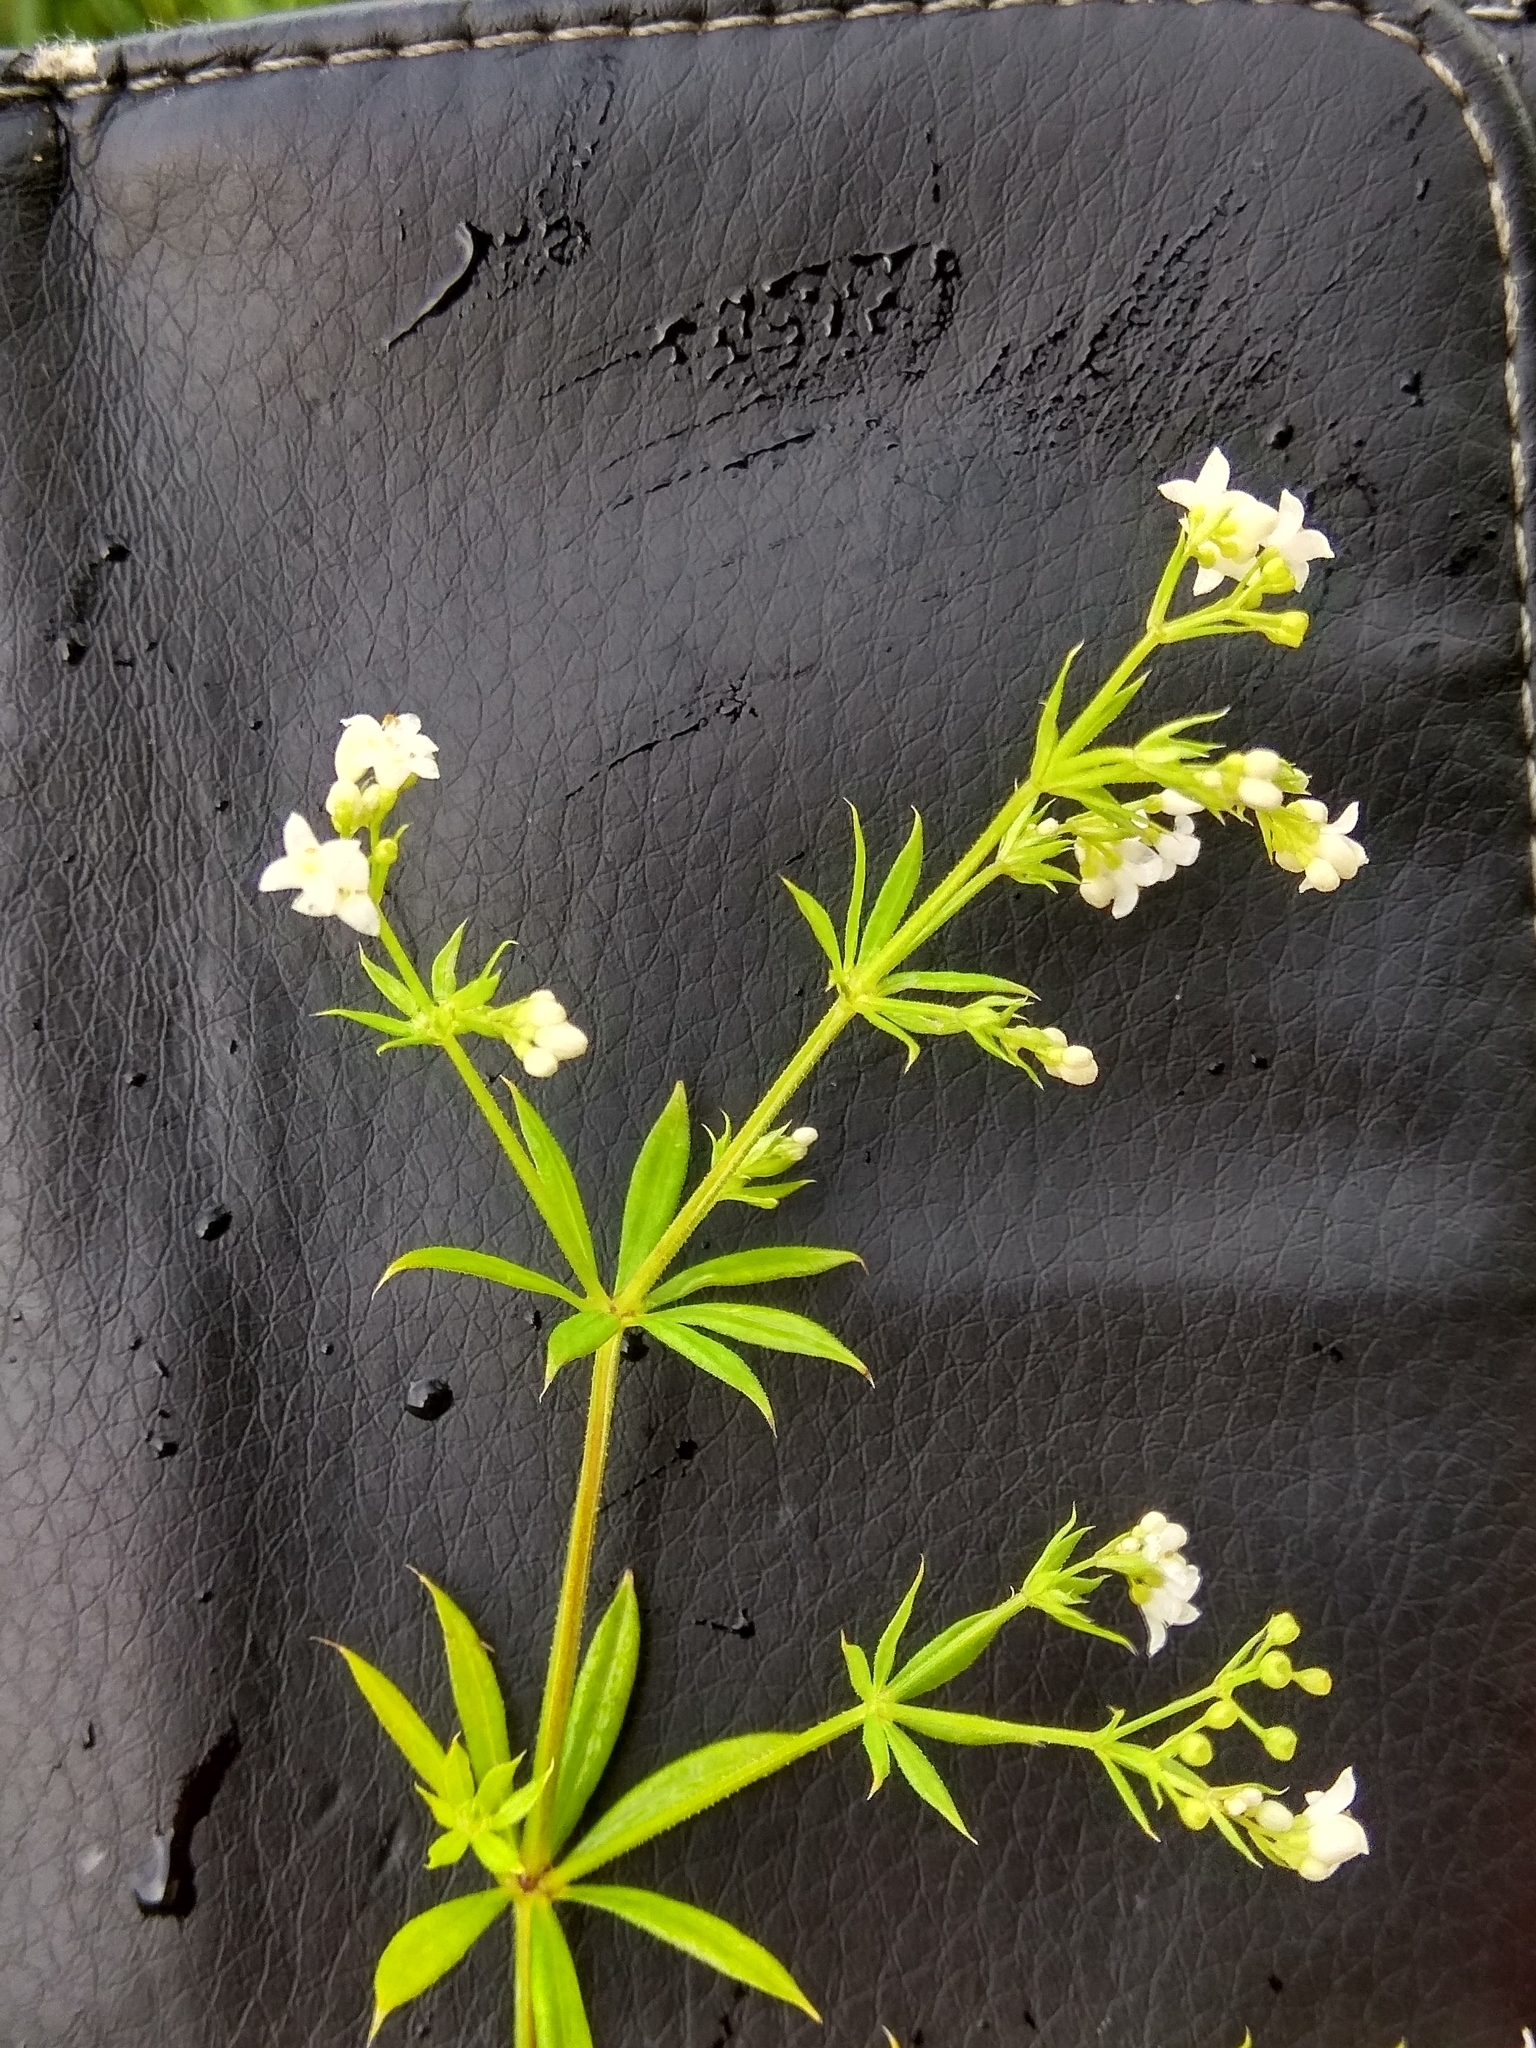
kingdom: Plantae
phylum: Tracheophyta
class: Magnoliopsida
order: Gentianales
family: Rubiaceae
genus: Galium
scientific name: Galium rivale
